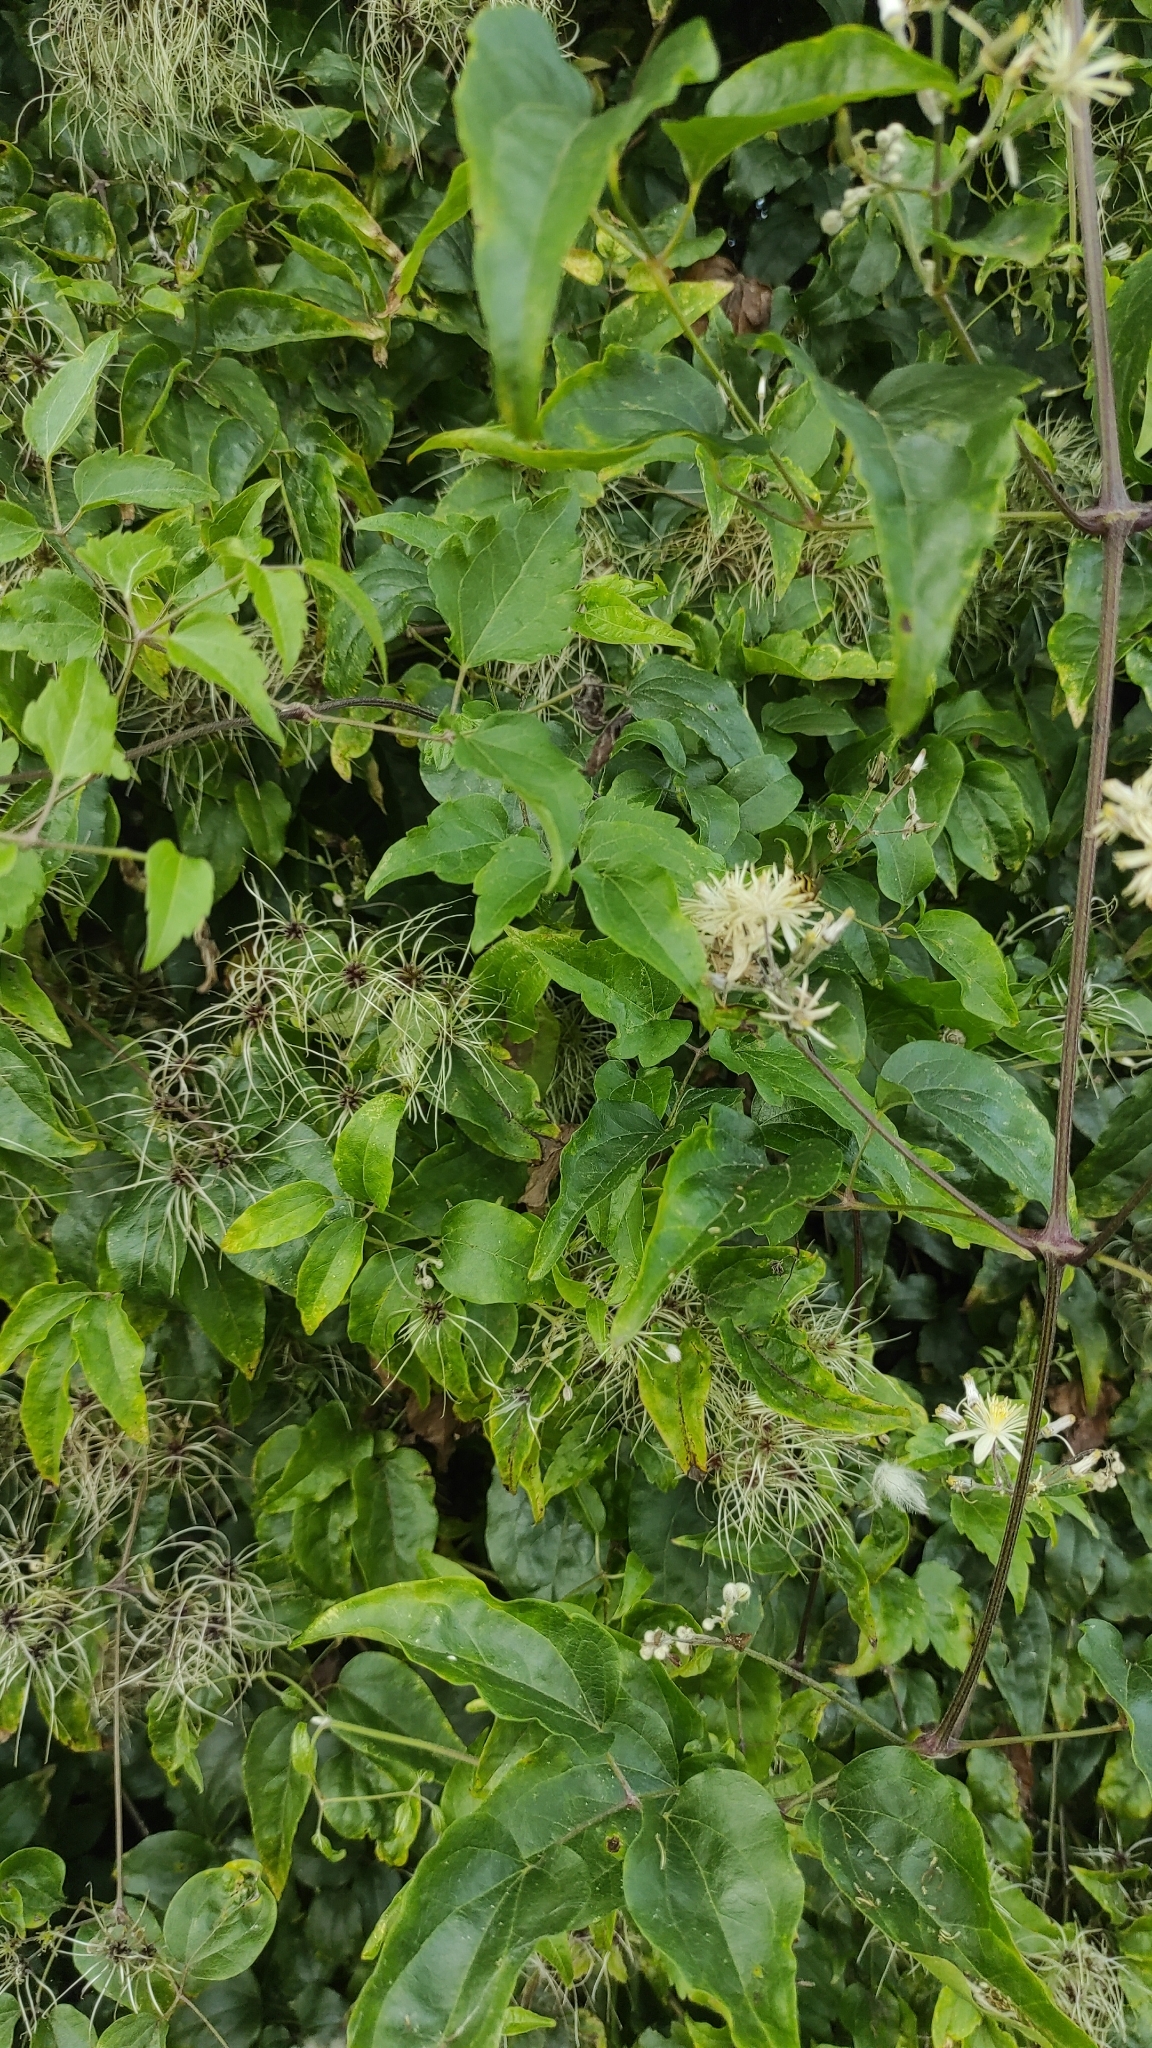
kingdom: Plantae
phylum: Tracheophyta
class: Magnoliopsida
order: Ranunculales
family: Ranunculaceae
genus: Clematis
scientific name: Clematis vitalba
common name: Evergreen clematis
